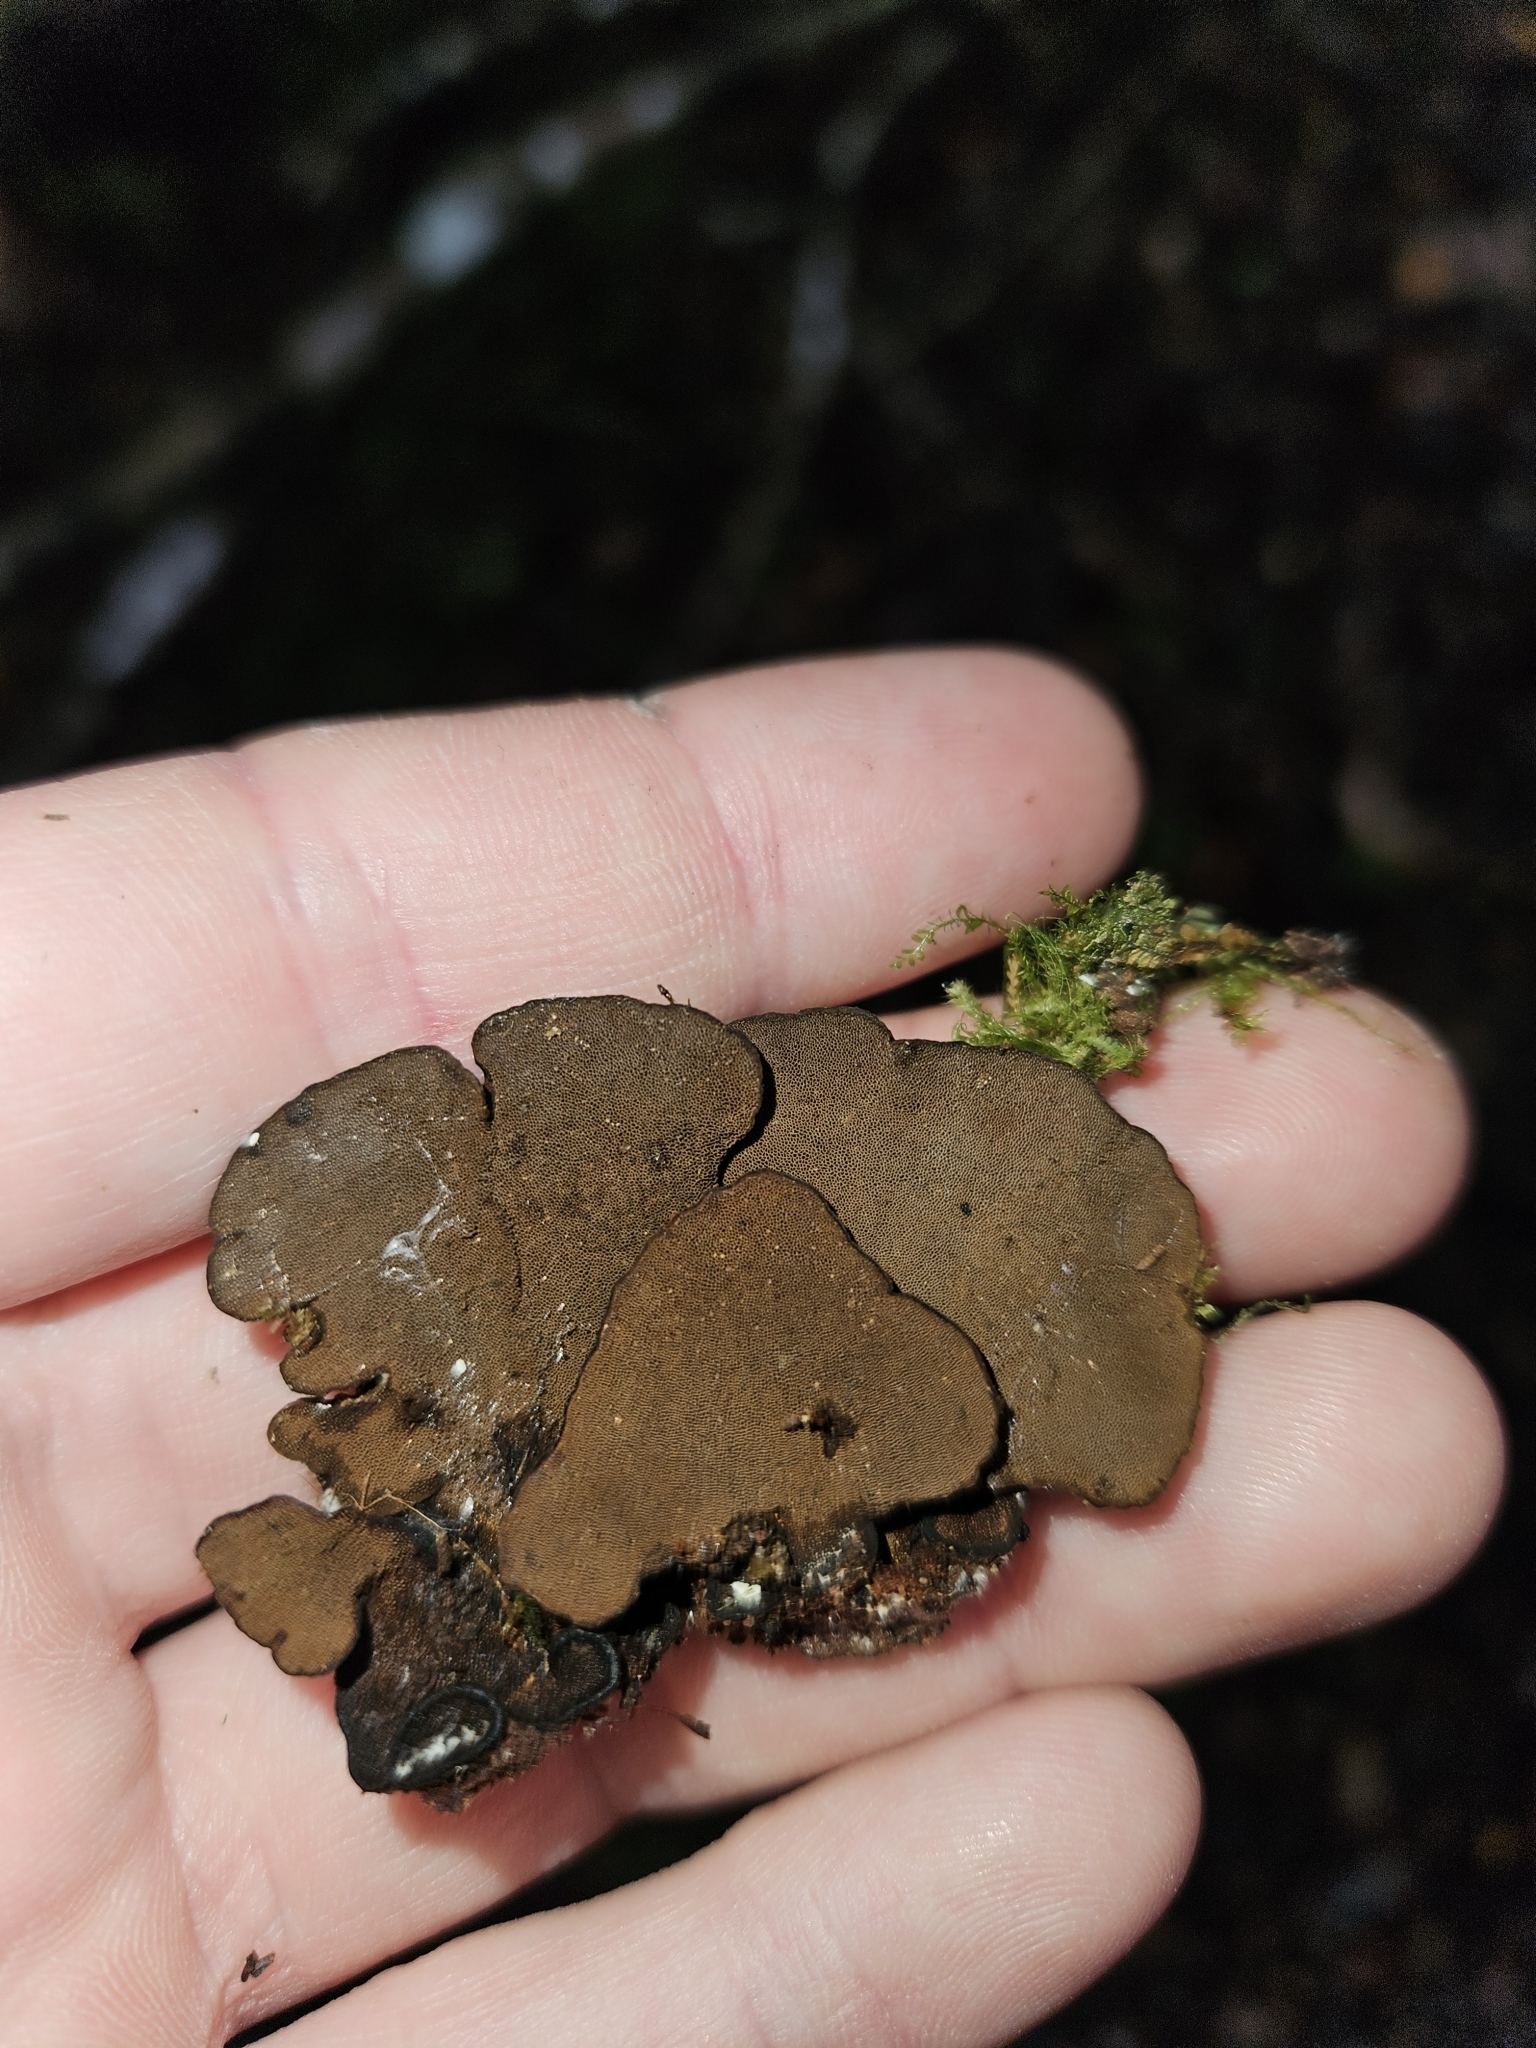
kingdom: Fungi
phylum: Basidiomycota
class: Agaricomycetes
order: Hymenochaetales
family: Hymenochaetaceae
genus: Hymenochaete
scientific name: Hymenochaete microcycla
